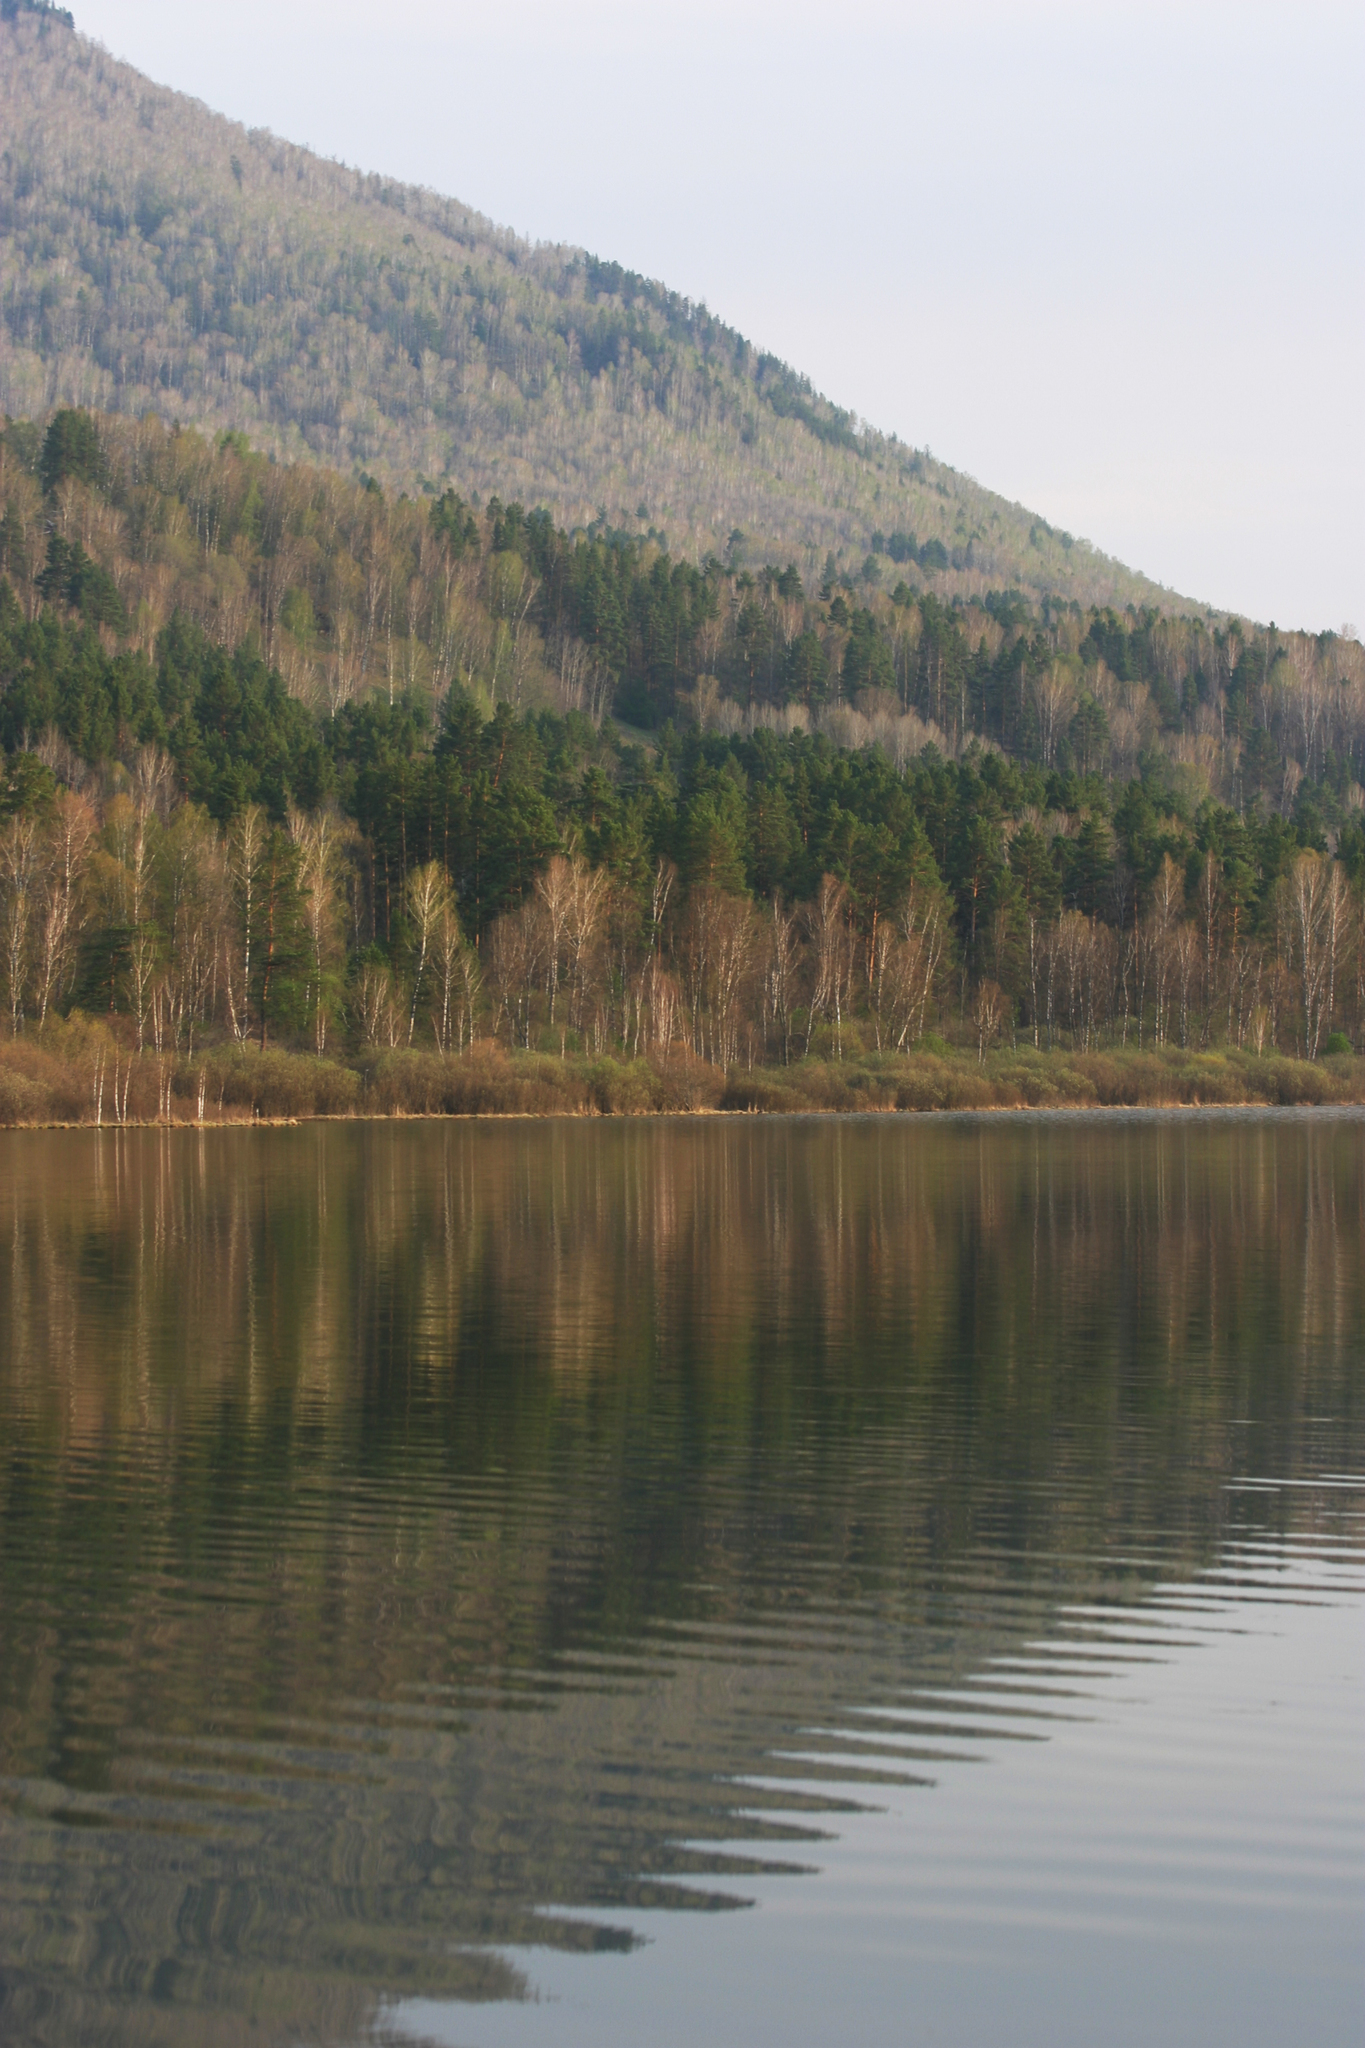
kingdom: Plantae
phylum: Tracheophyta
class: Pinopsida
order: Pinales
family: Pinaceae
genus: Pinus
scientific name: Pinus sylvestris
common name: Scots pine
